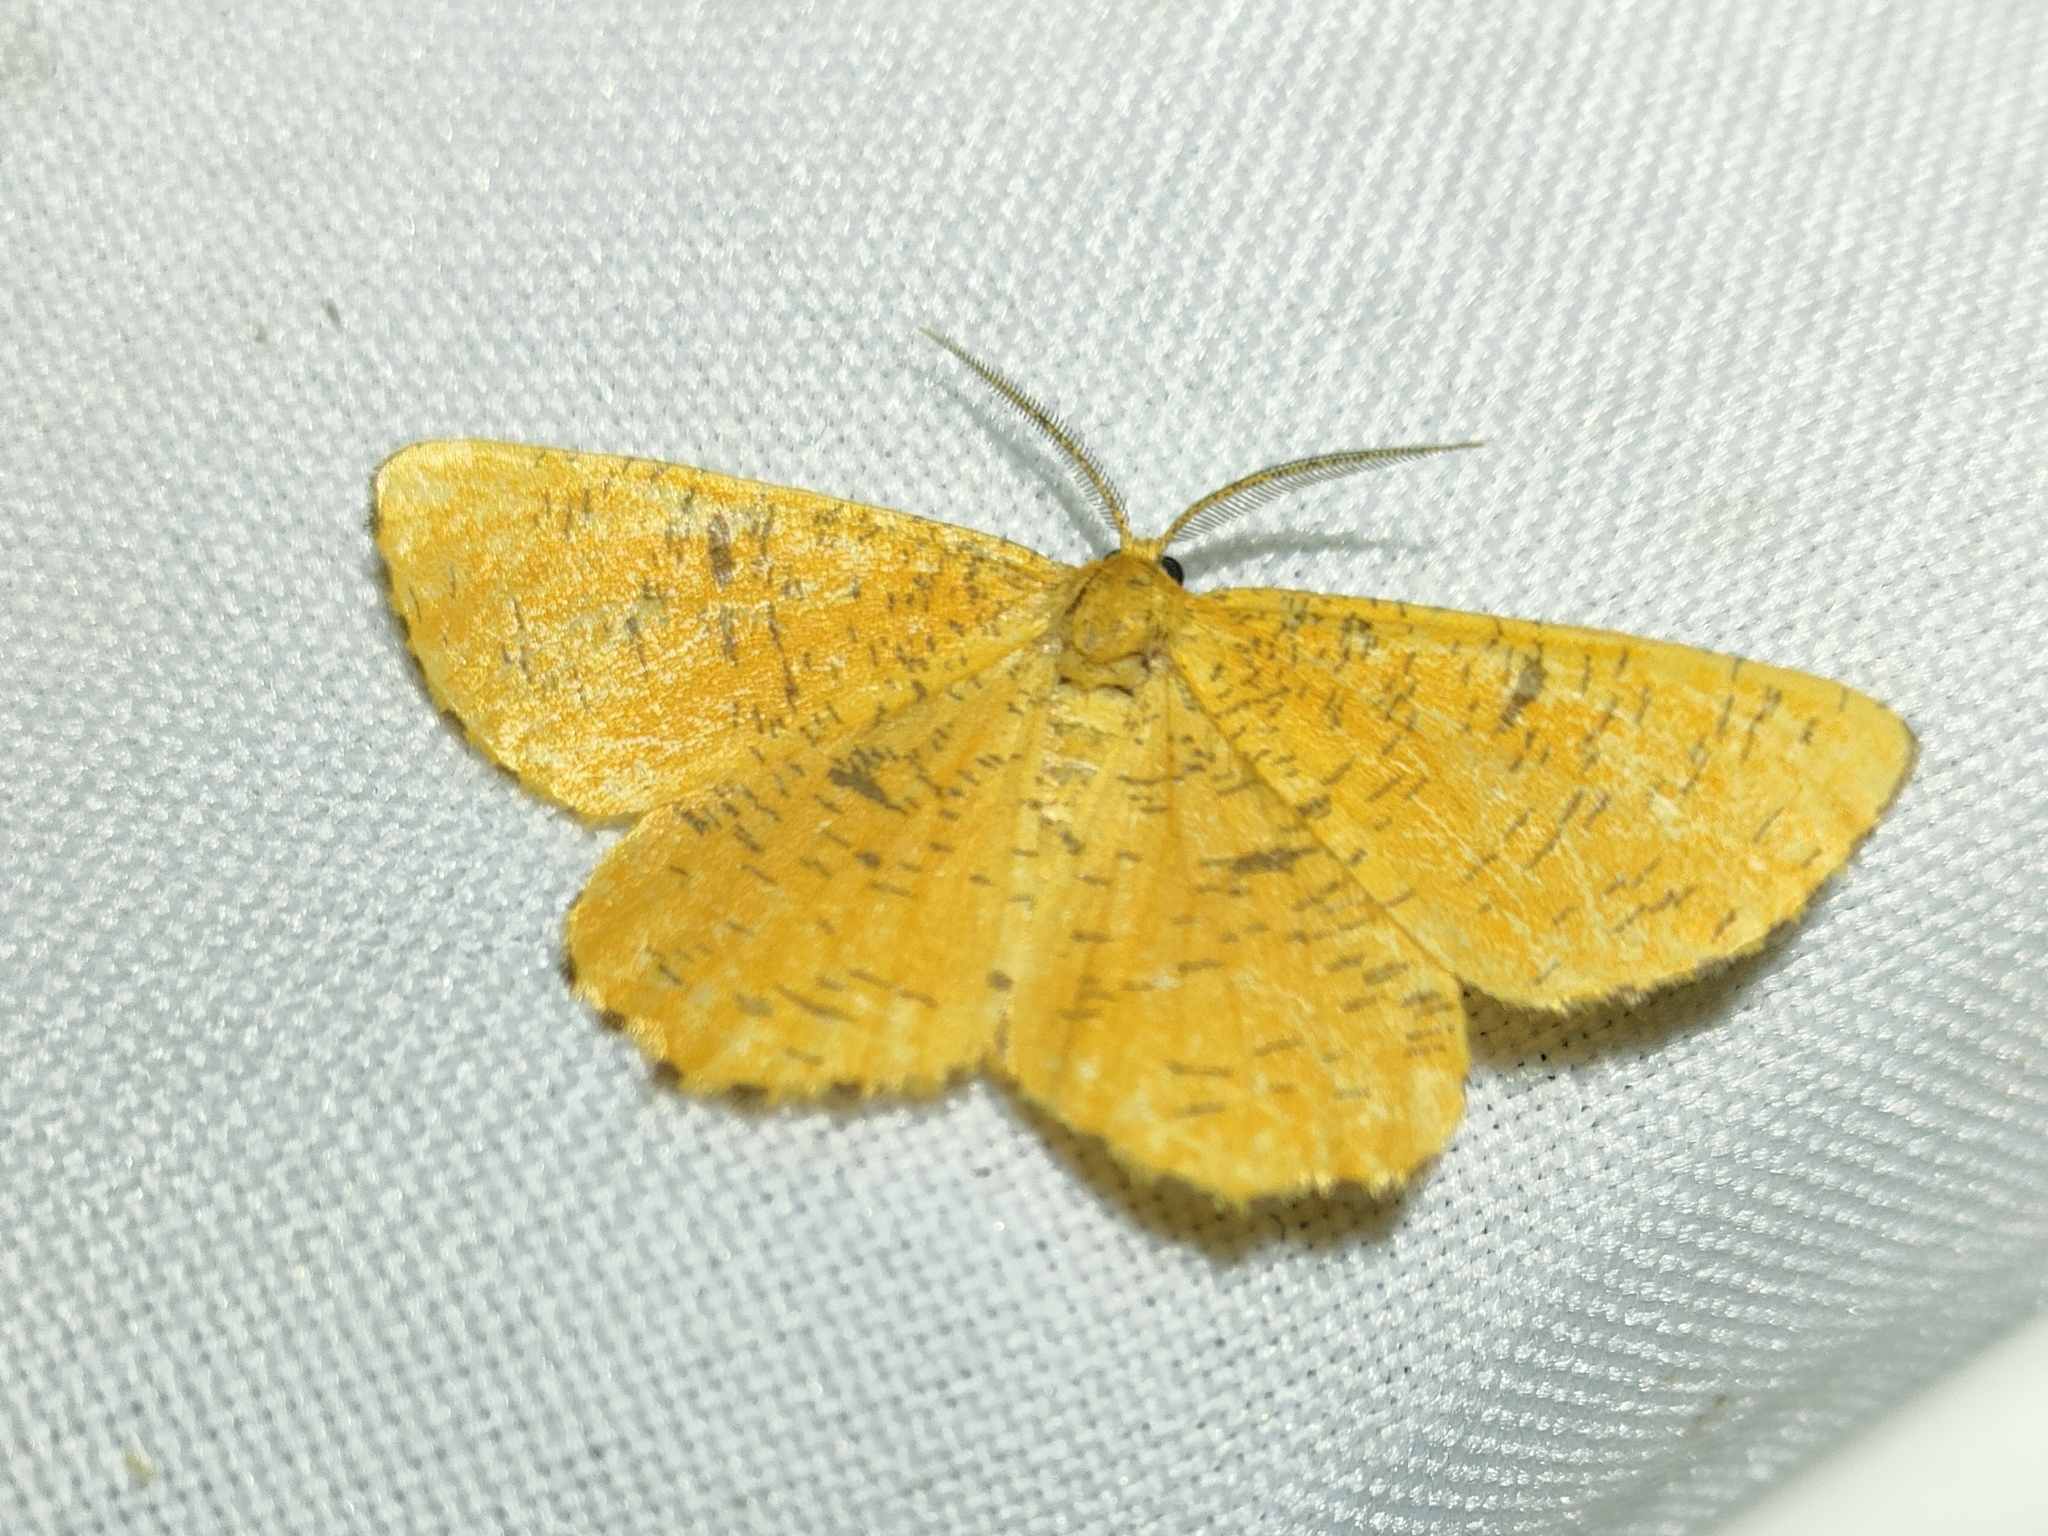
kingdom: Animalia
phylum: Arthropoda
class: Insecta
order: Lepidoptera
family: Geometridae
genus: Angerona
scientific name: Angerona prunaria
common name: Orange moth
